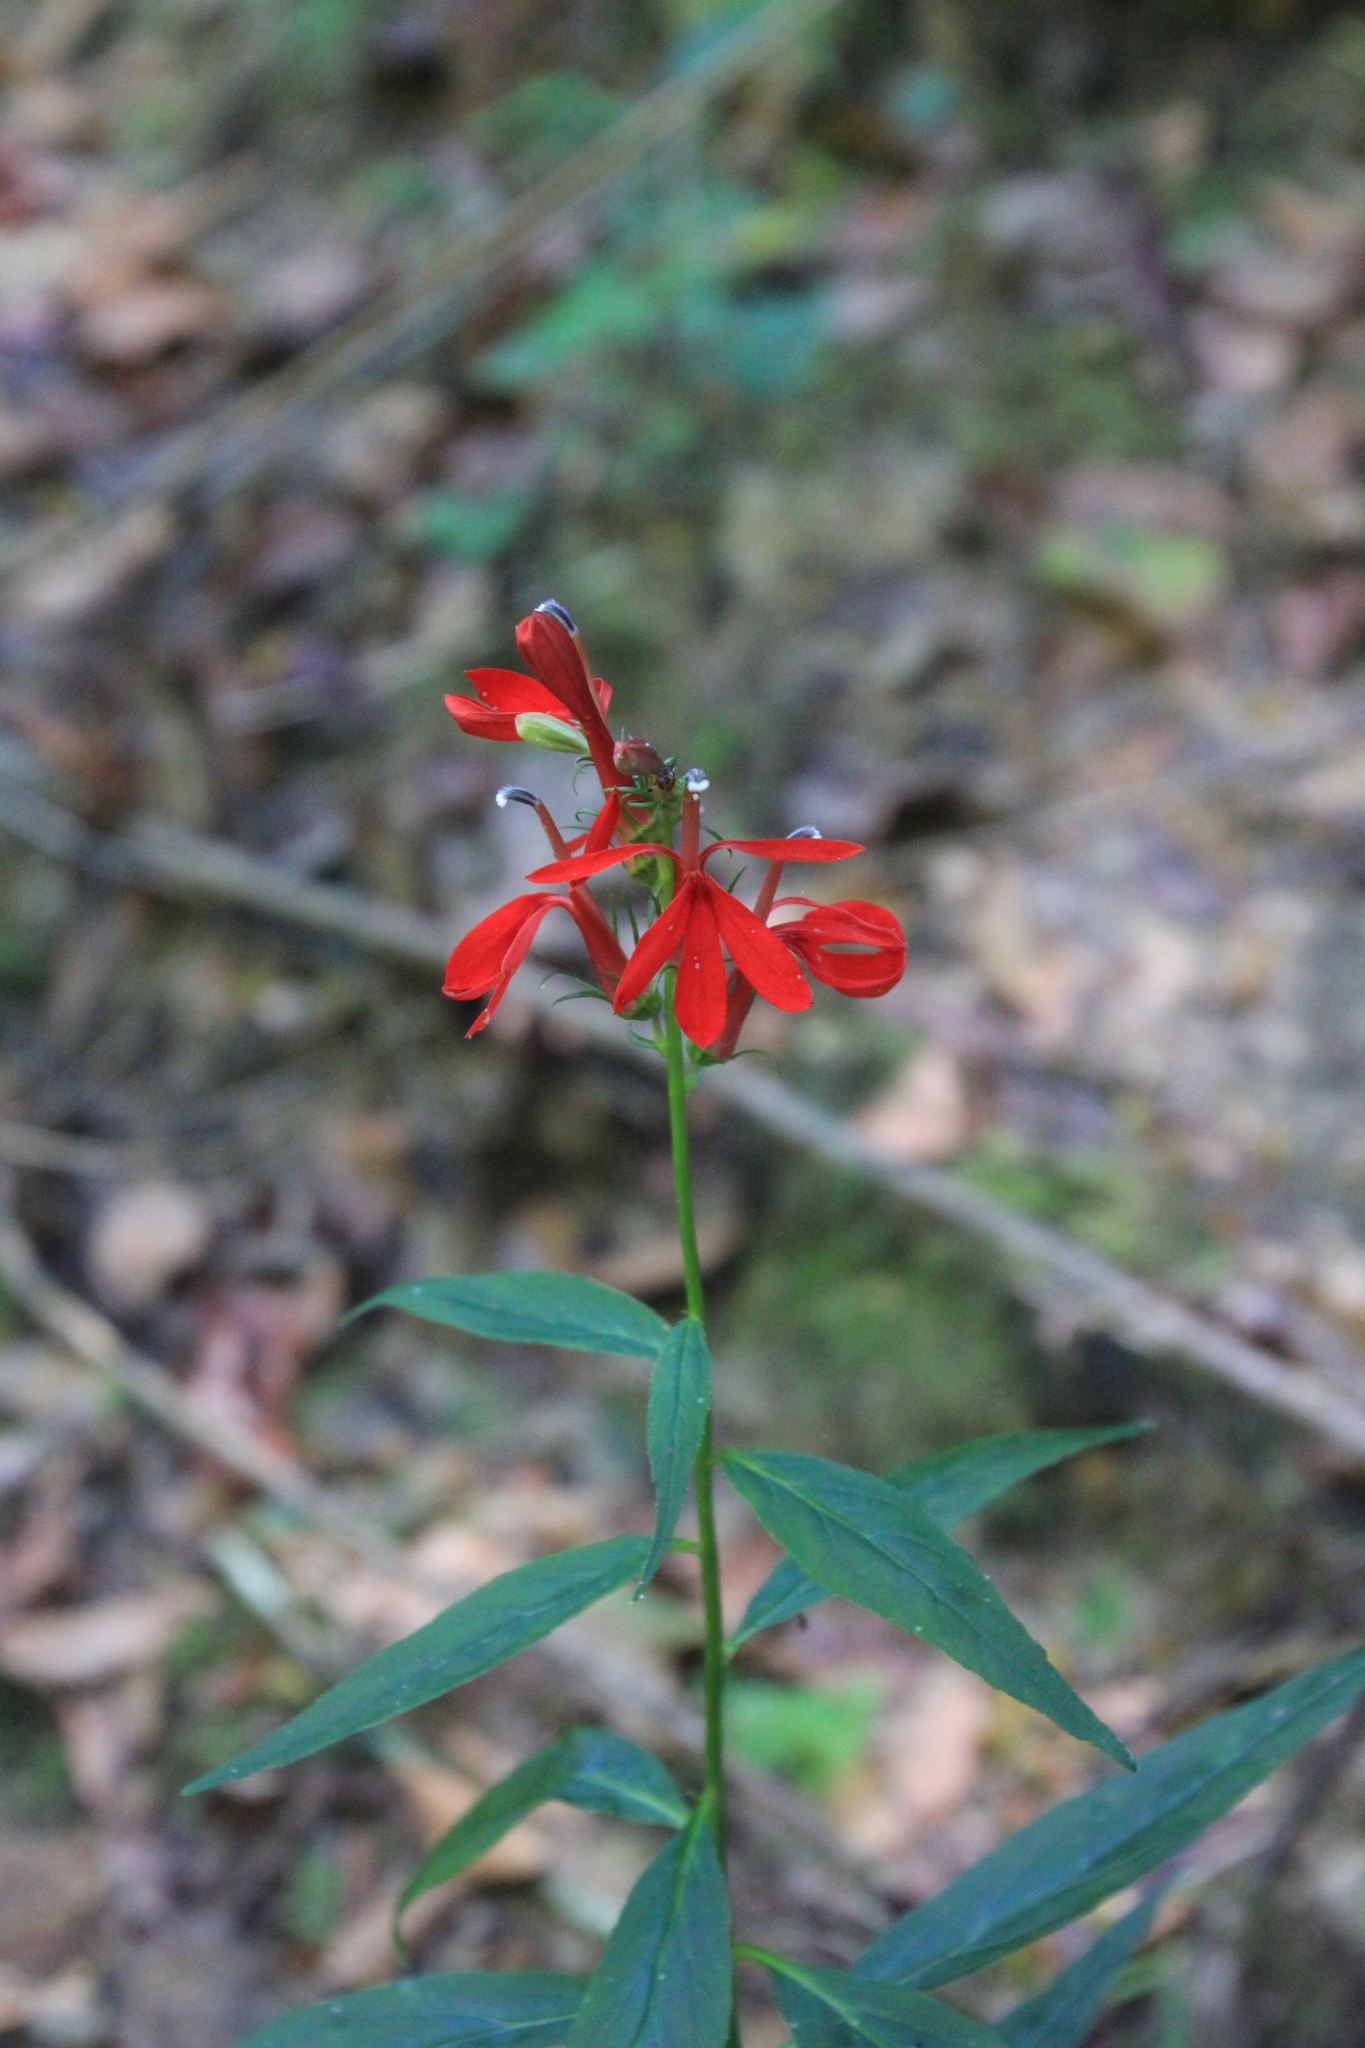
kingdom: Plantae
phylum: Tracheophyta
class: Magnoliopsida
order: Asterales
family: Campanulaceae
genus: Lobelia
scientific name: Lobelia cardinalis
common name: Cardinal flower
